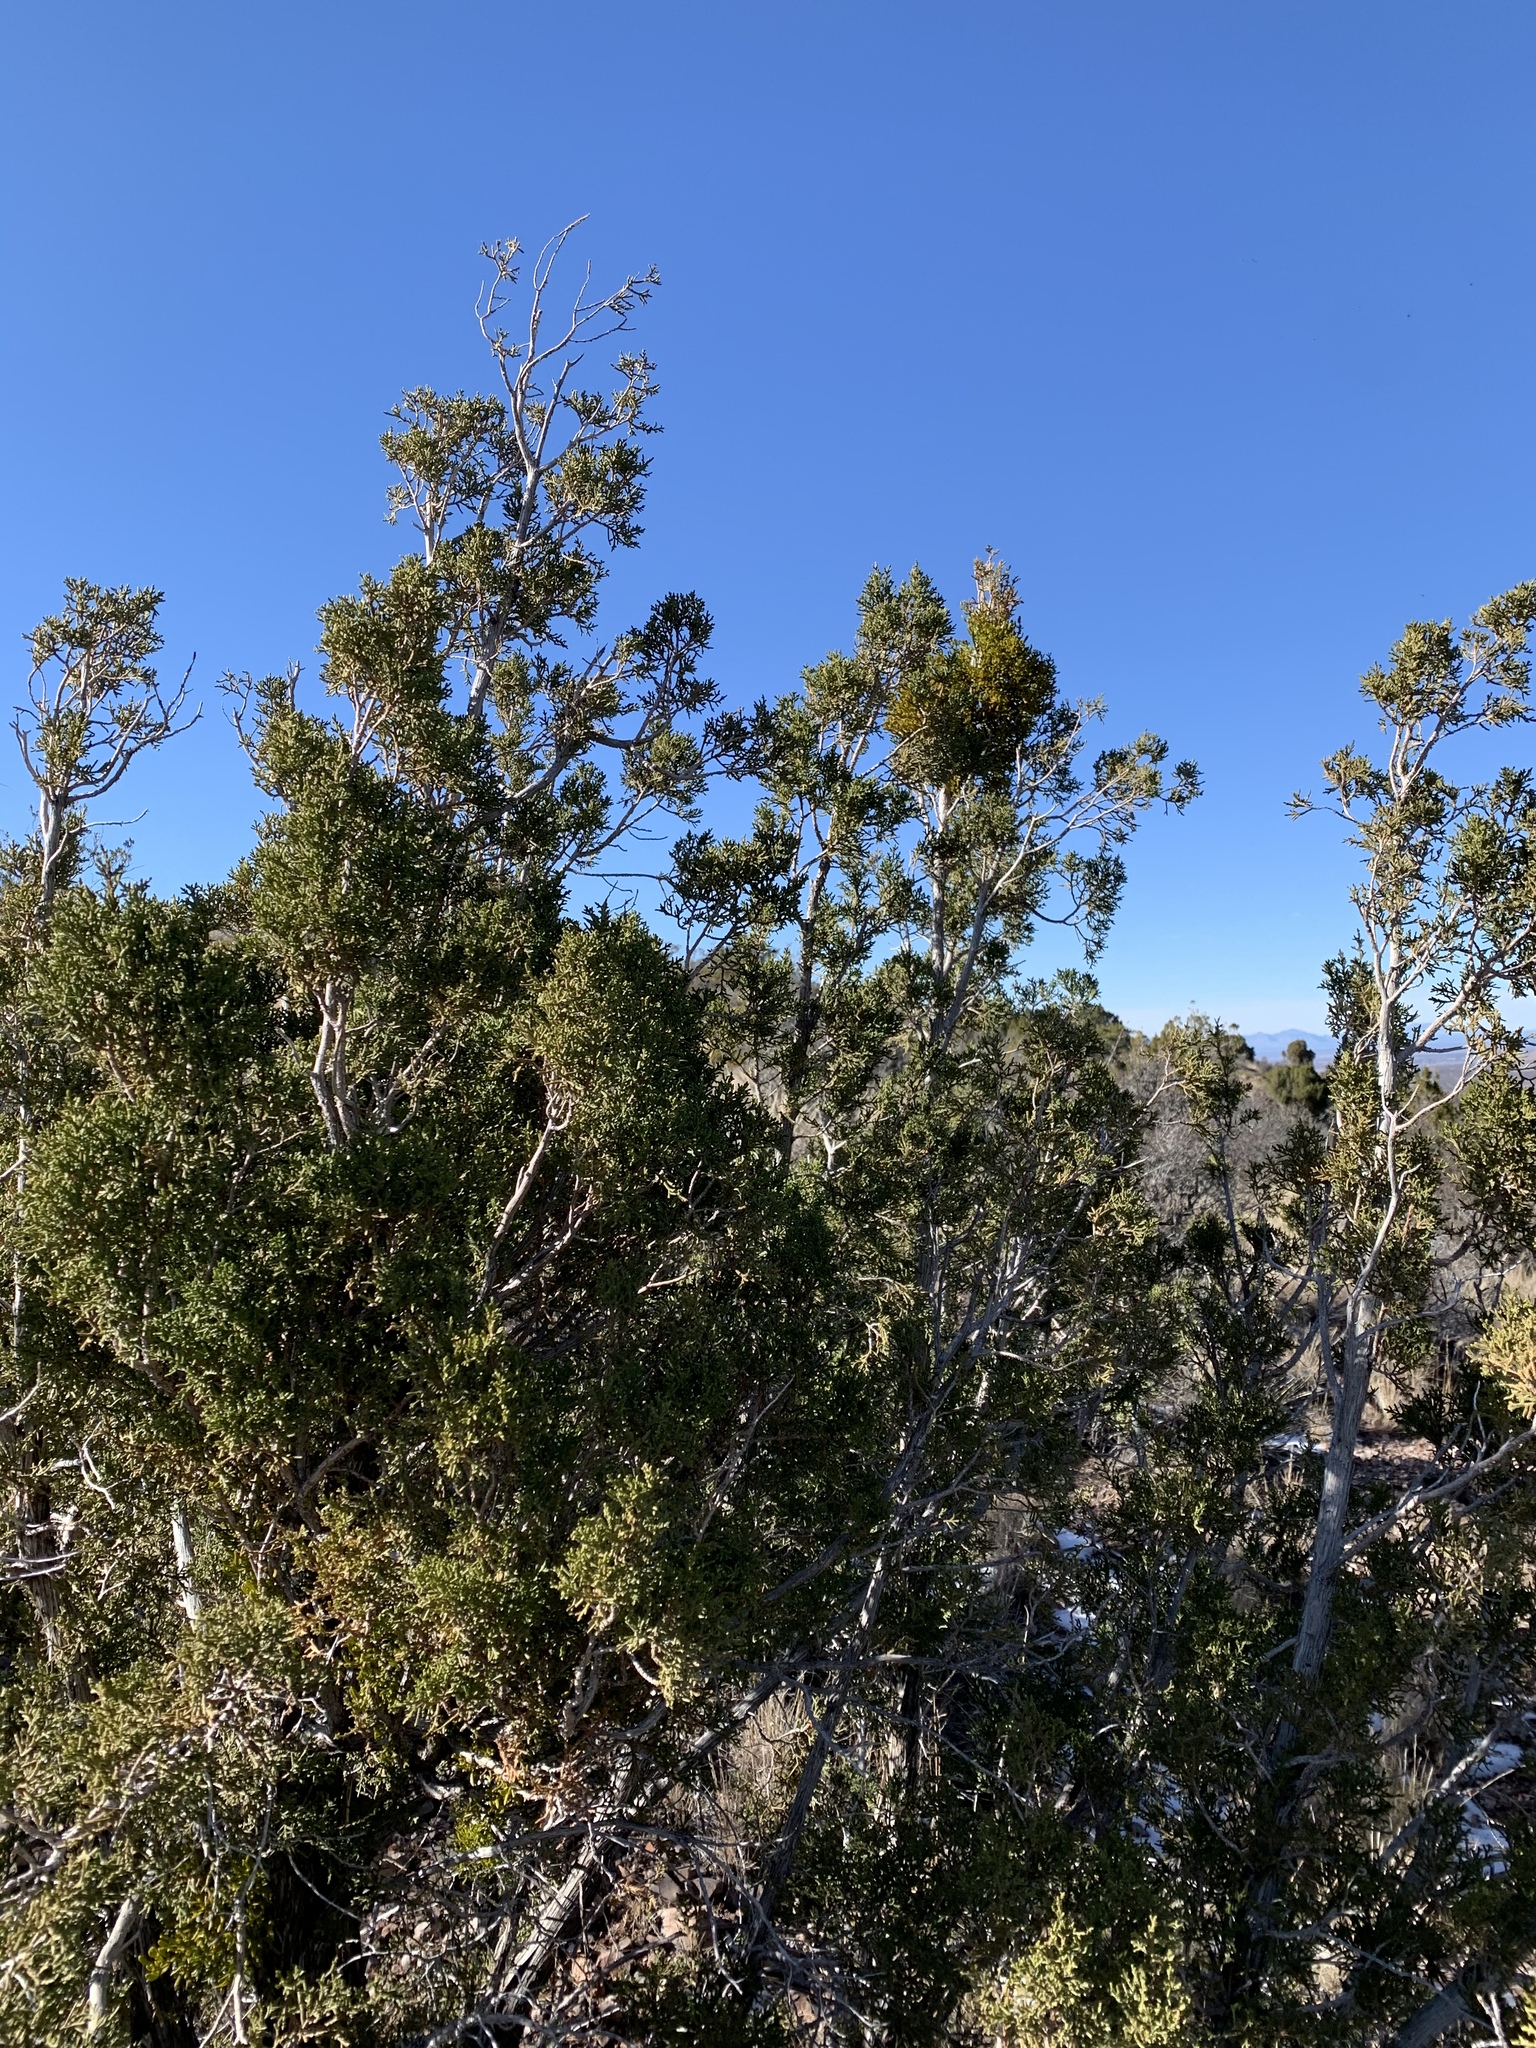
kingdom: Plantae
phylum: Tracheophyta
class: Pinopsida
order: Pinales
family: Cupressaceae
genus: Juniperus
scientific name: Juniperus monosperma
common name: One-seed juniper
